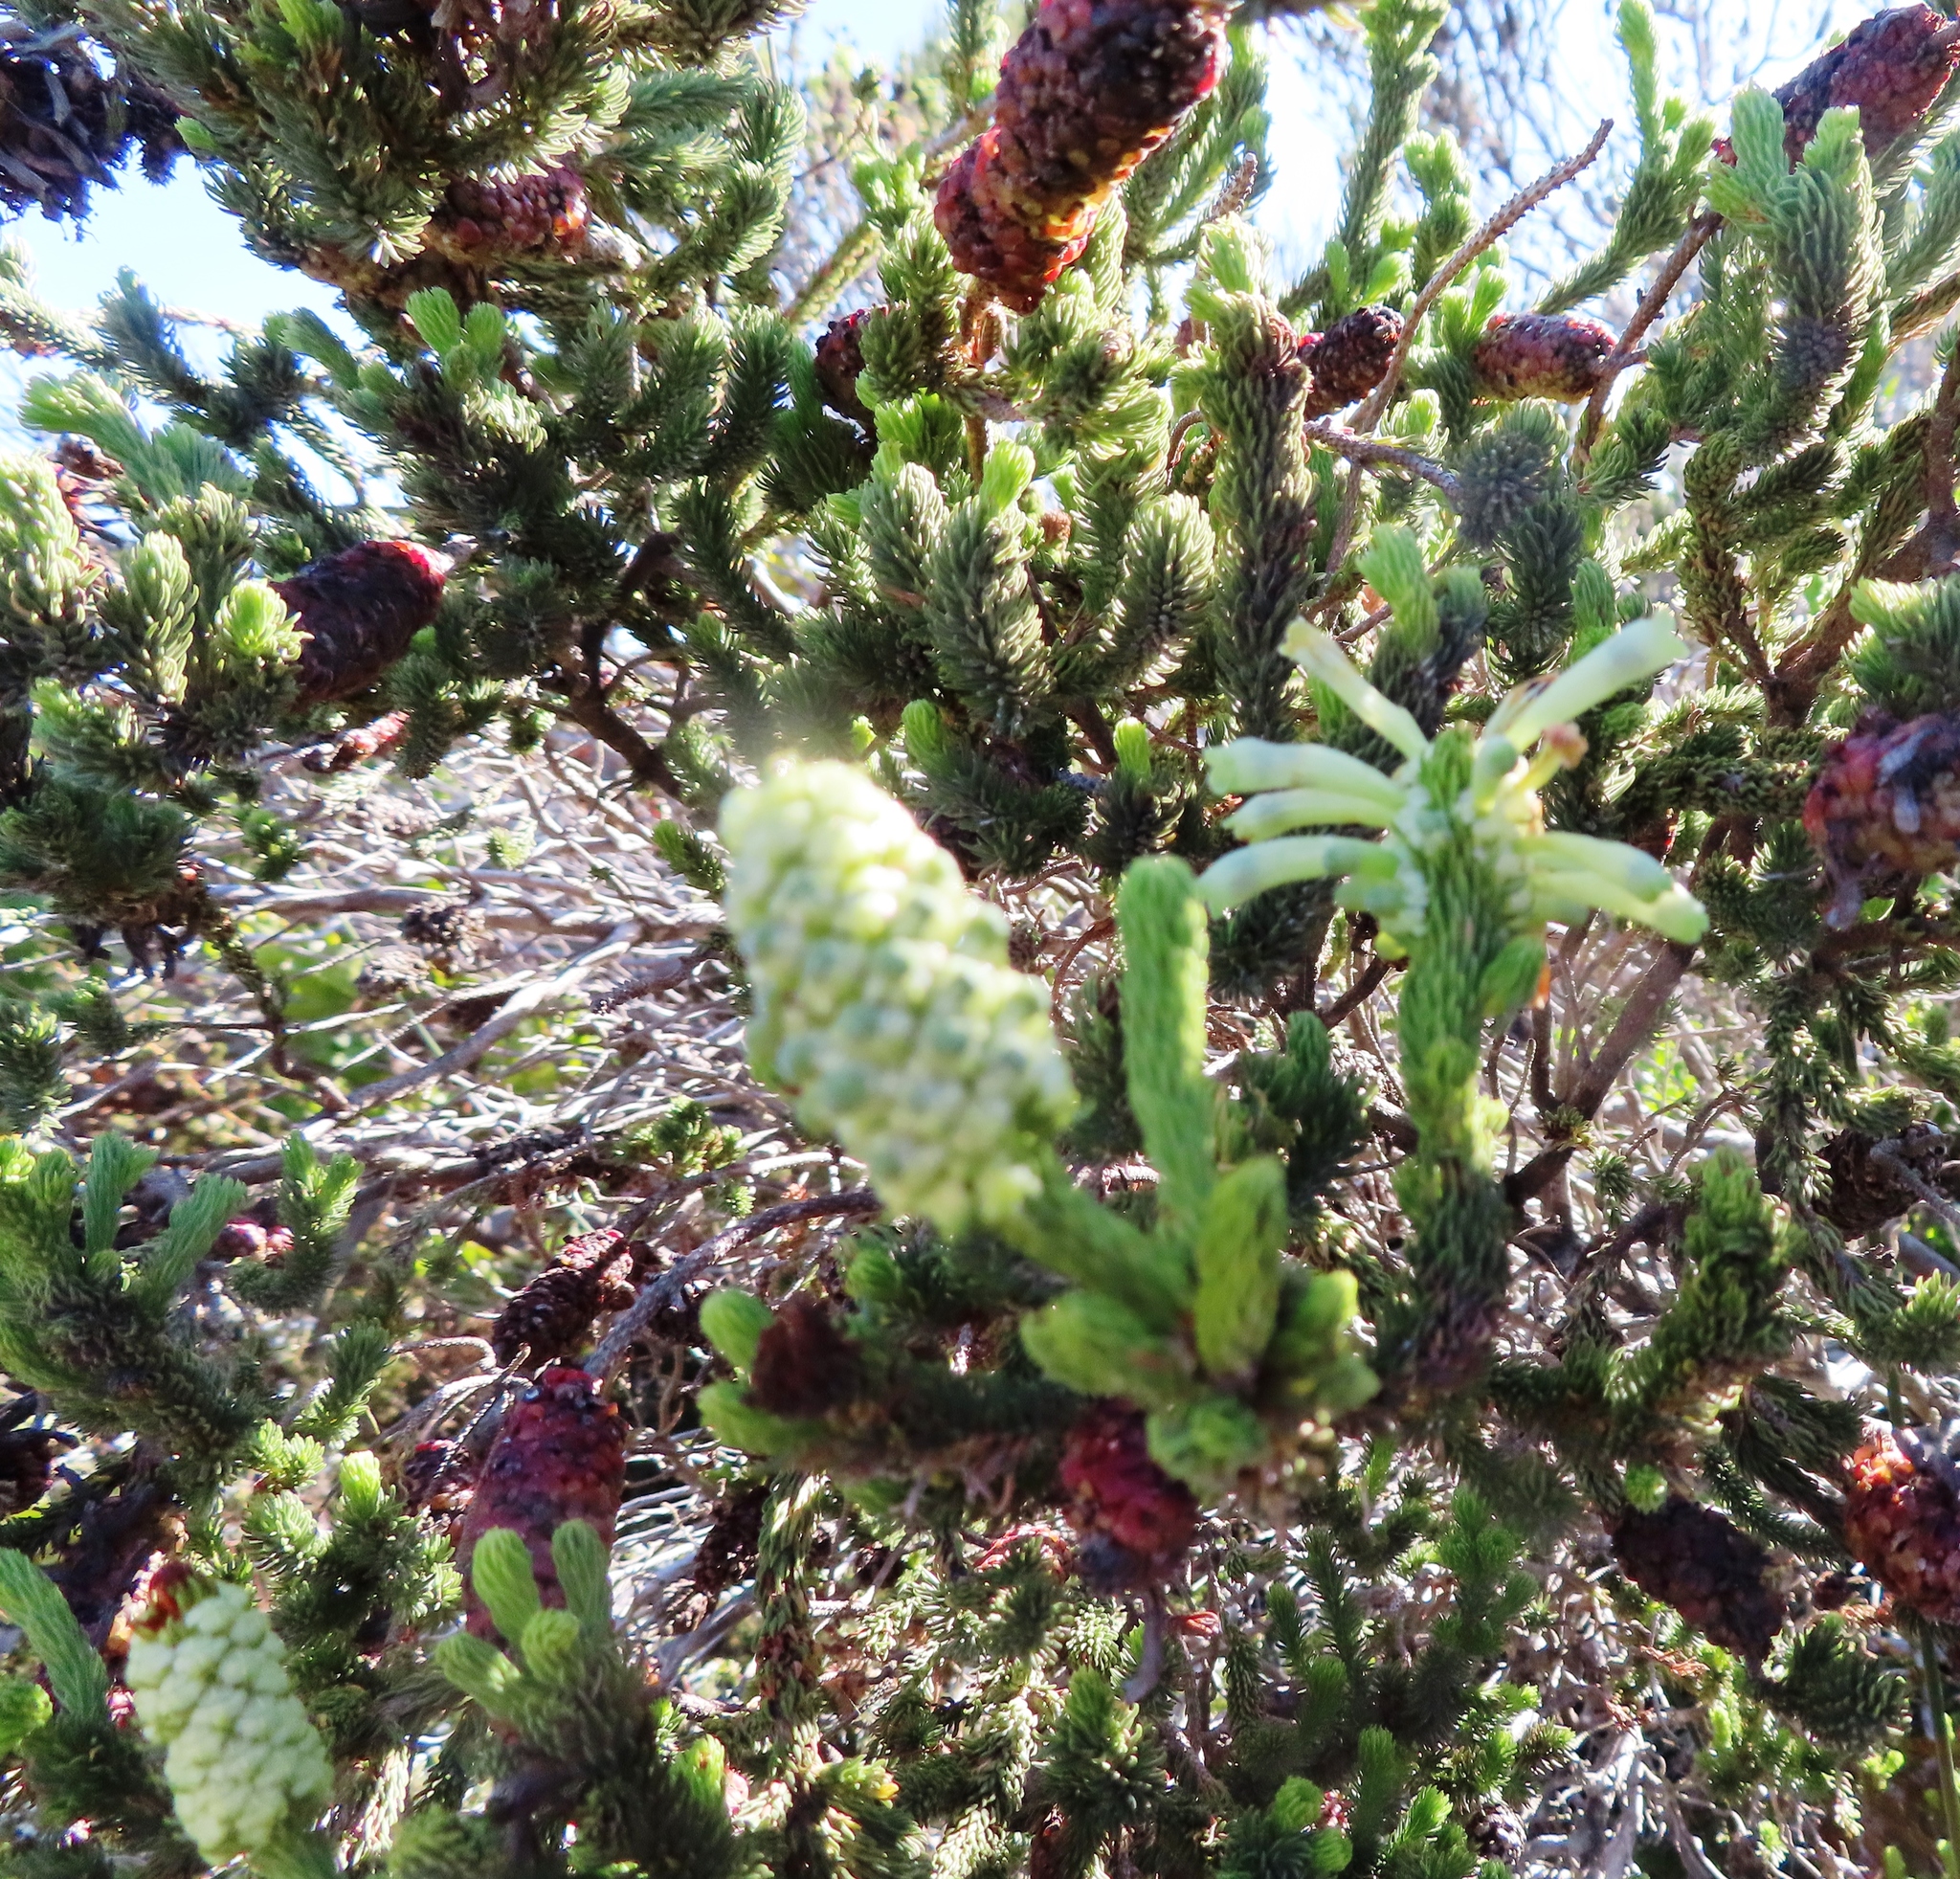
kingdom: Plantae
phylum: Tracheophyta
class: Magnoliopsida
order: Ericales
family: Ericaceae
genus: Erica
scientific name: Erica sessiliflora
